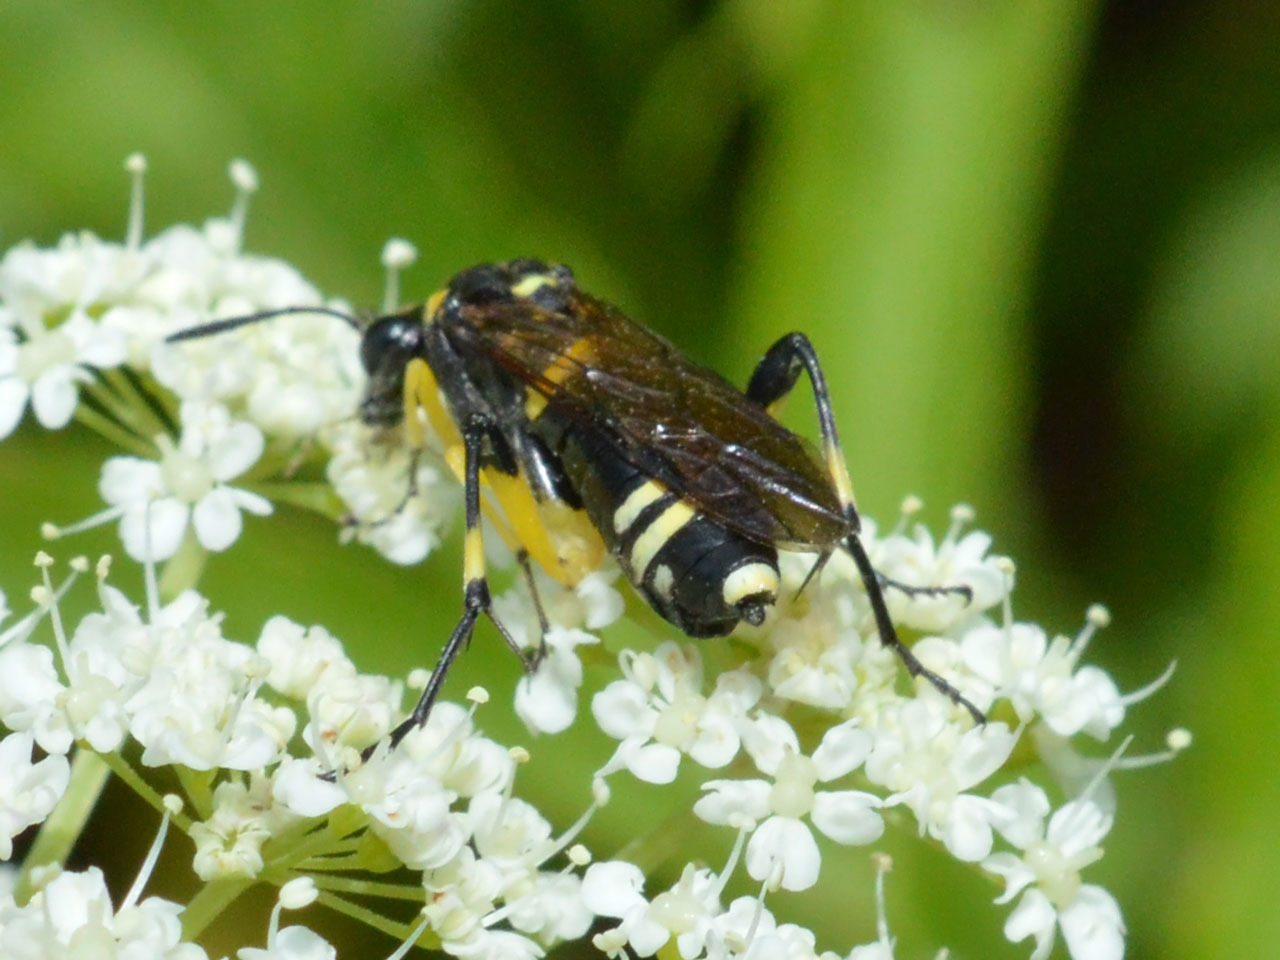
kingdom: Animalia
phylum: Arthropoda
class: Insecta
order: Hymenoptera
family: Tenthredinidae
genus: Macrophya
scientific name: Macrophya montana
